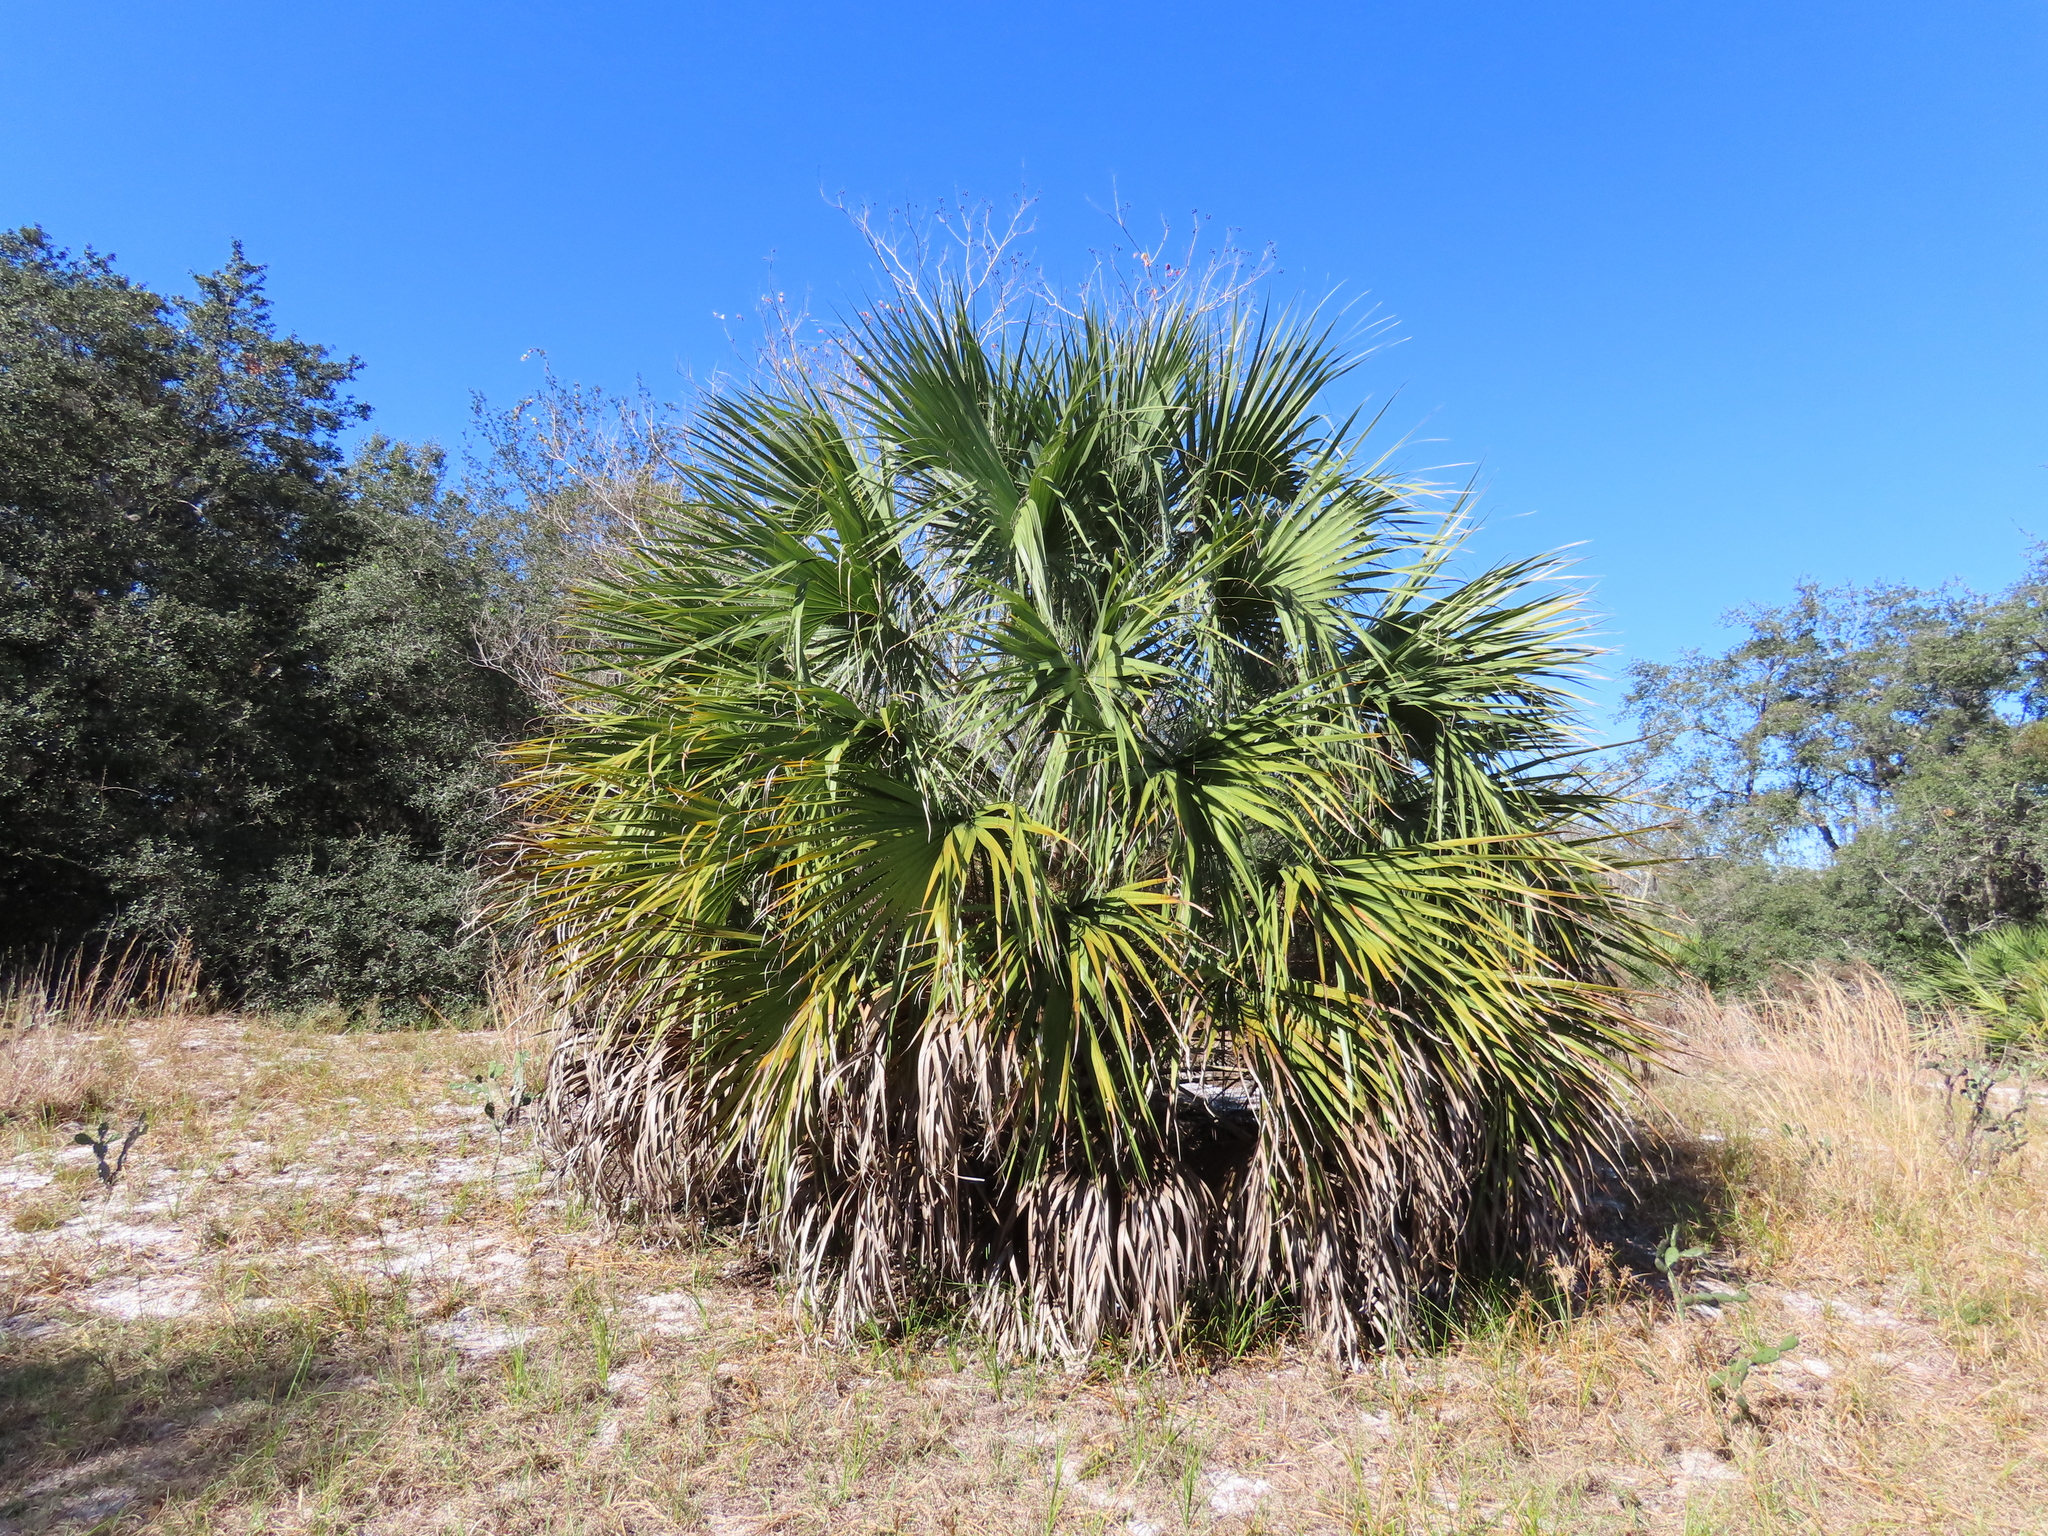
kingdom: Plantae
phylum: Tracheophyta
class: Liliopsida
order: Arecales
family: Arecaceae
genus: Sabal
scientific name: Sabal palmetto
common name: Blue palmetto
